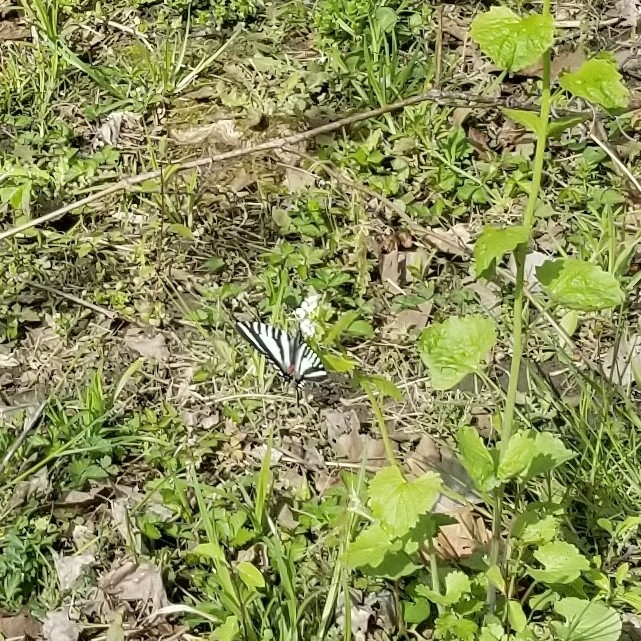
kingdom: Animalia
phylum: Arthropoda
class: Insecta
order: Lepidoptera
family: Papilionidae
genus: Protographium
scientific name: Protographium marcellus
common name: Zebra swallowtail
